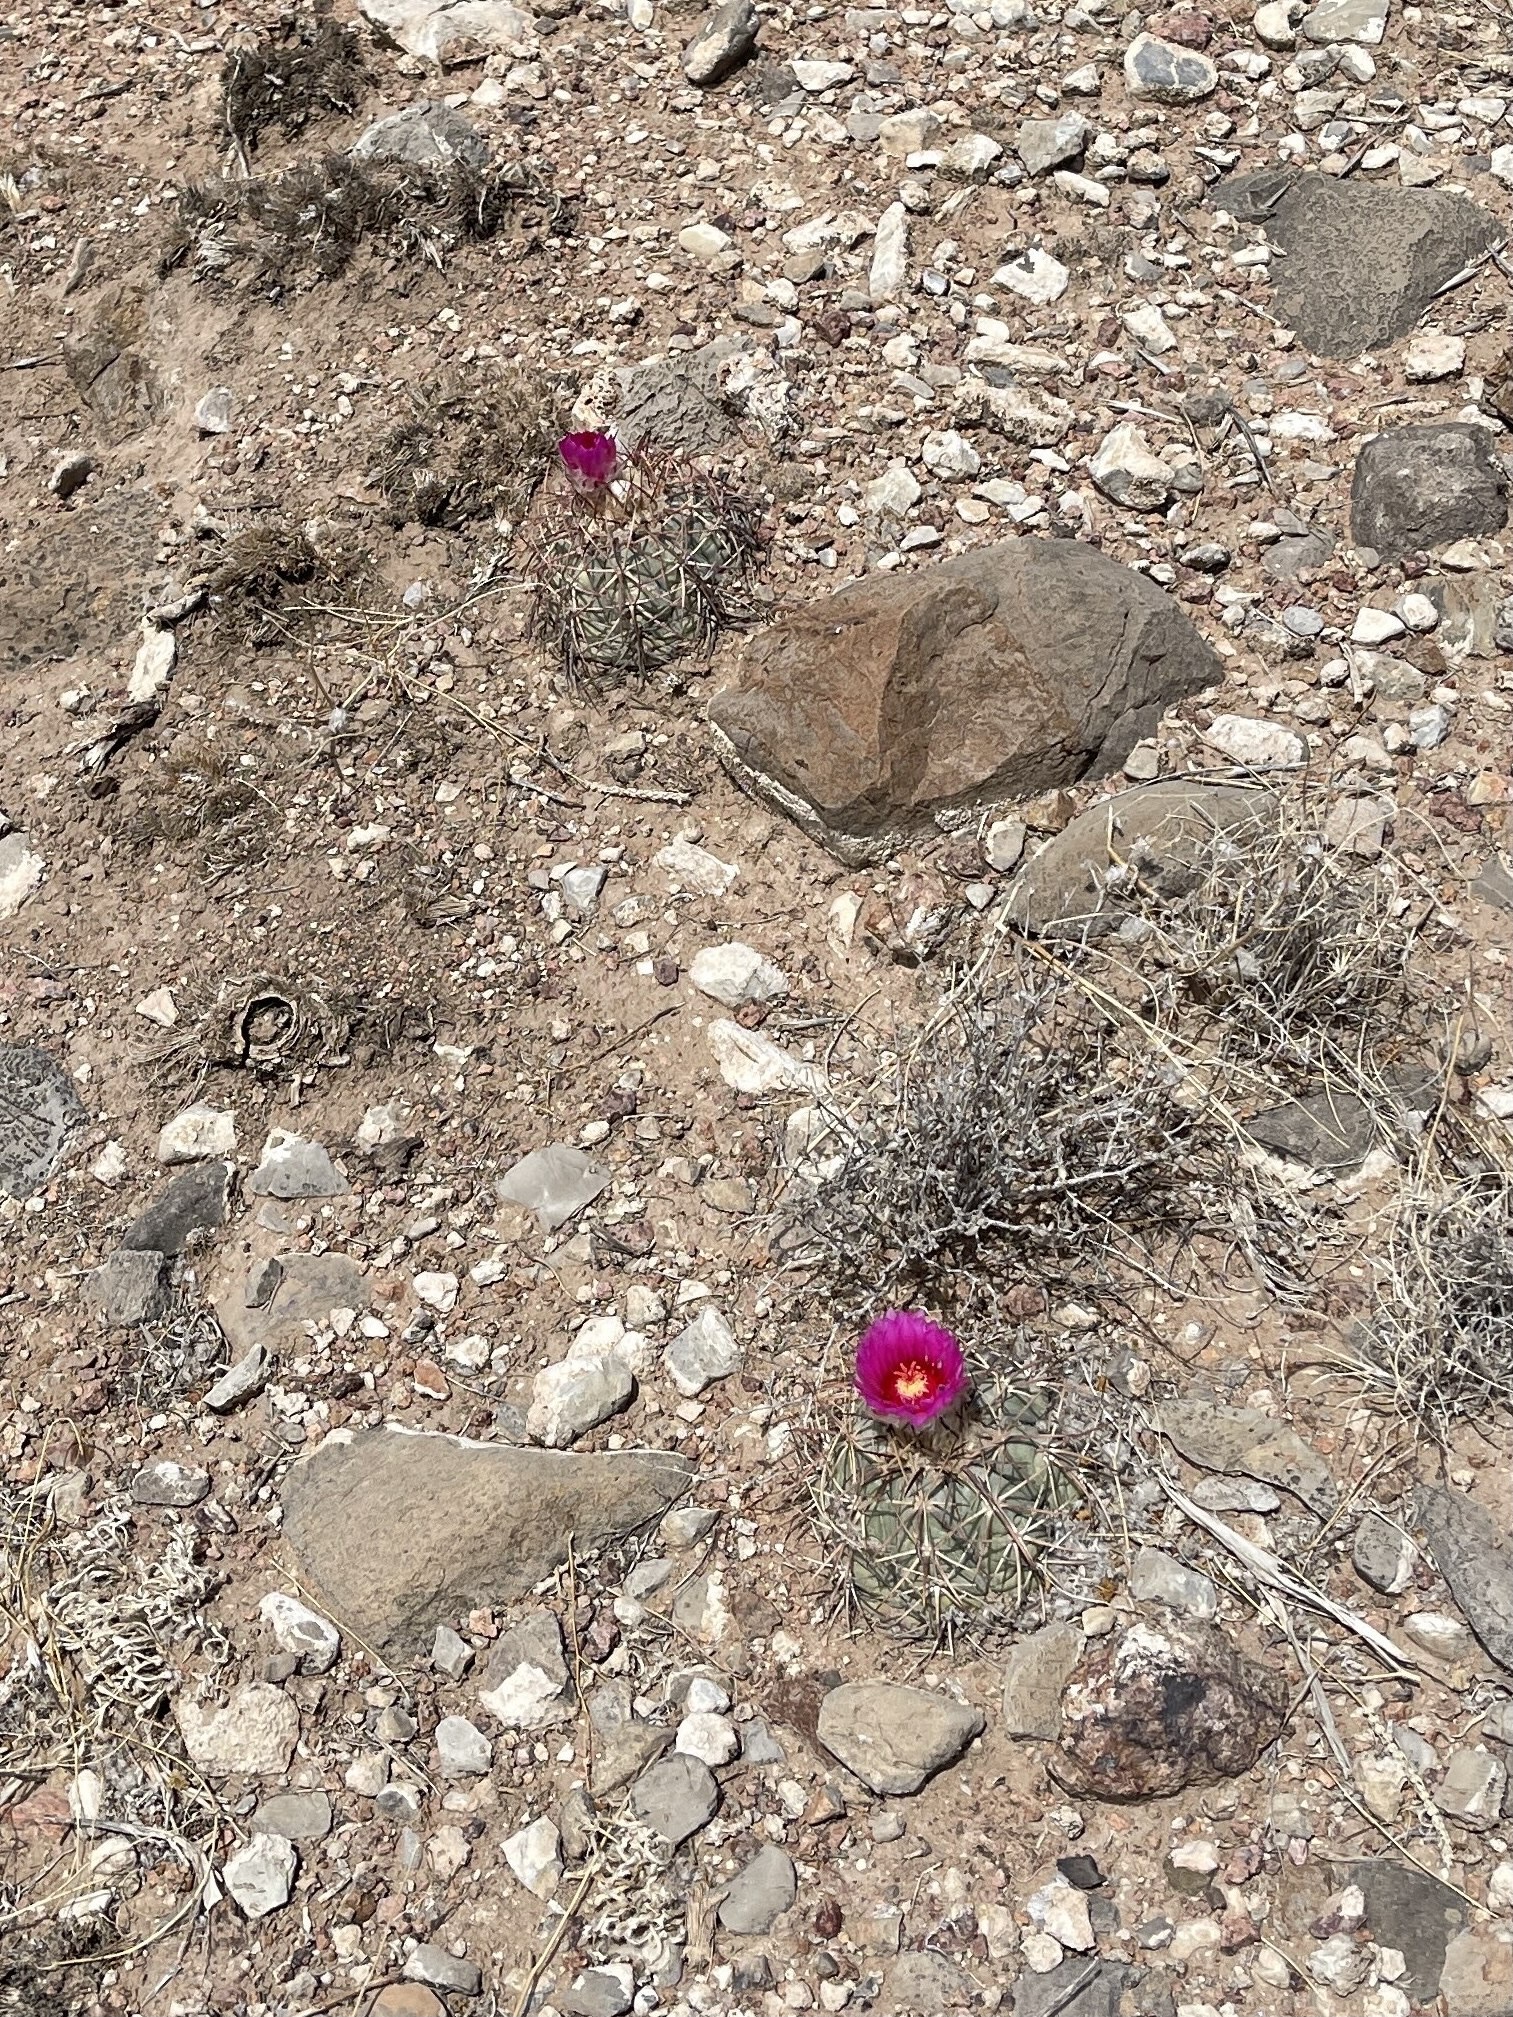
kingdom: Plantae
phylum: Tracheophyta
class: Magnoliopsida
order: Caryophyllales
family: Cactaceae
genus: Echinocactus
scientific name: Echinocactus horizonthalonius
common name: Devilshead
